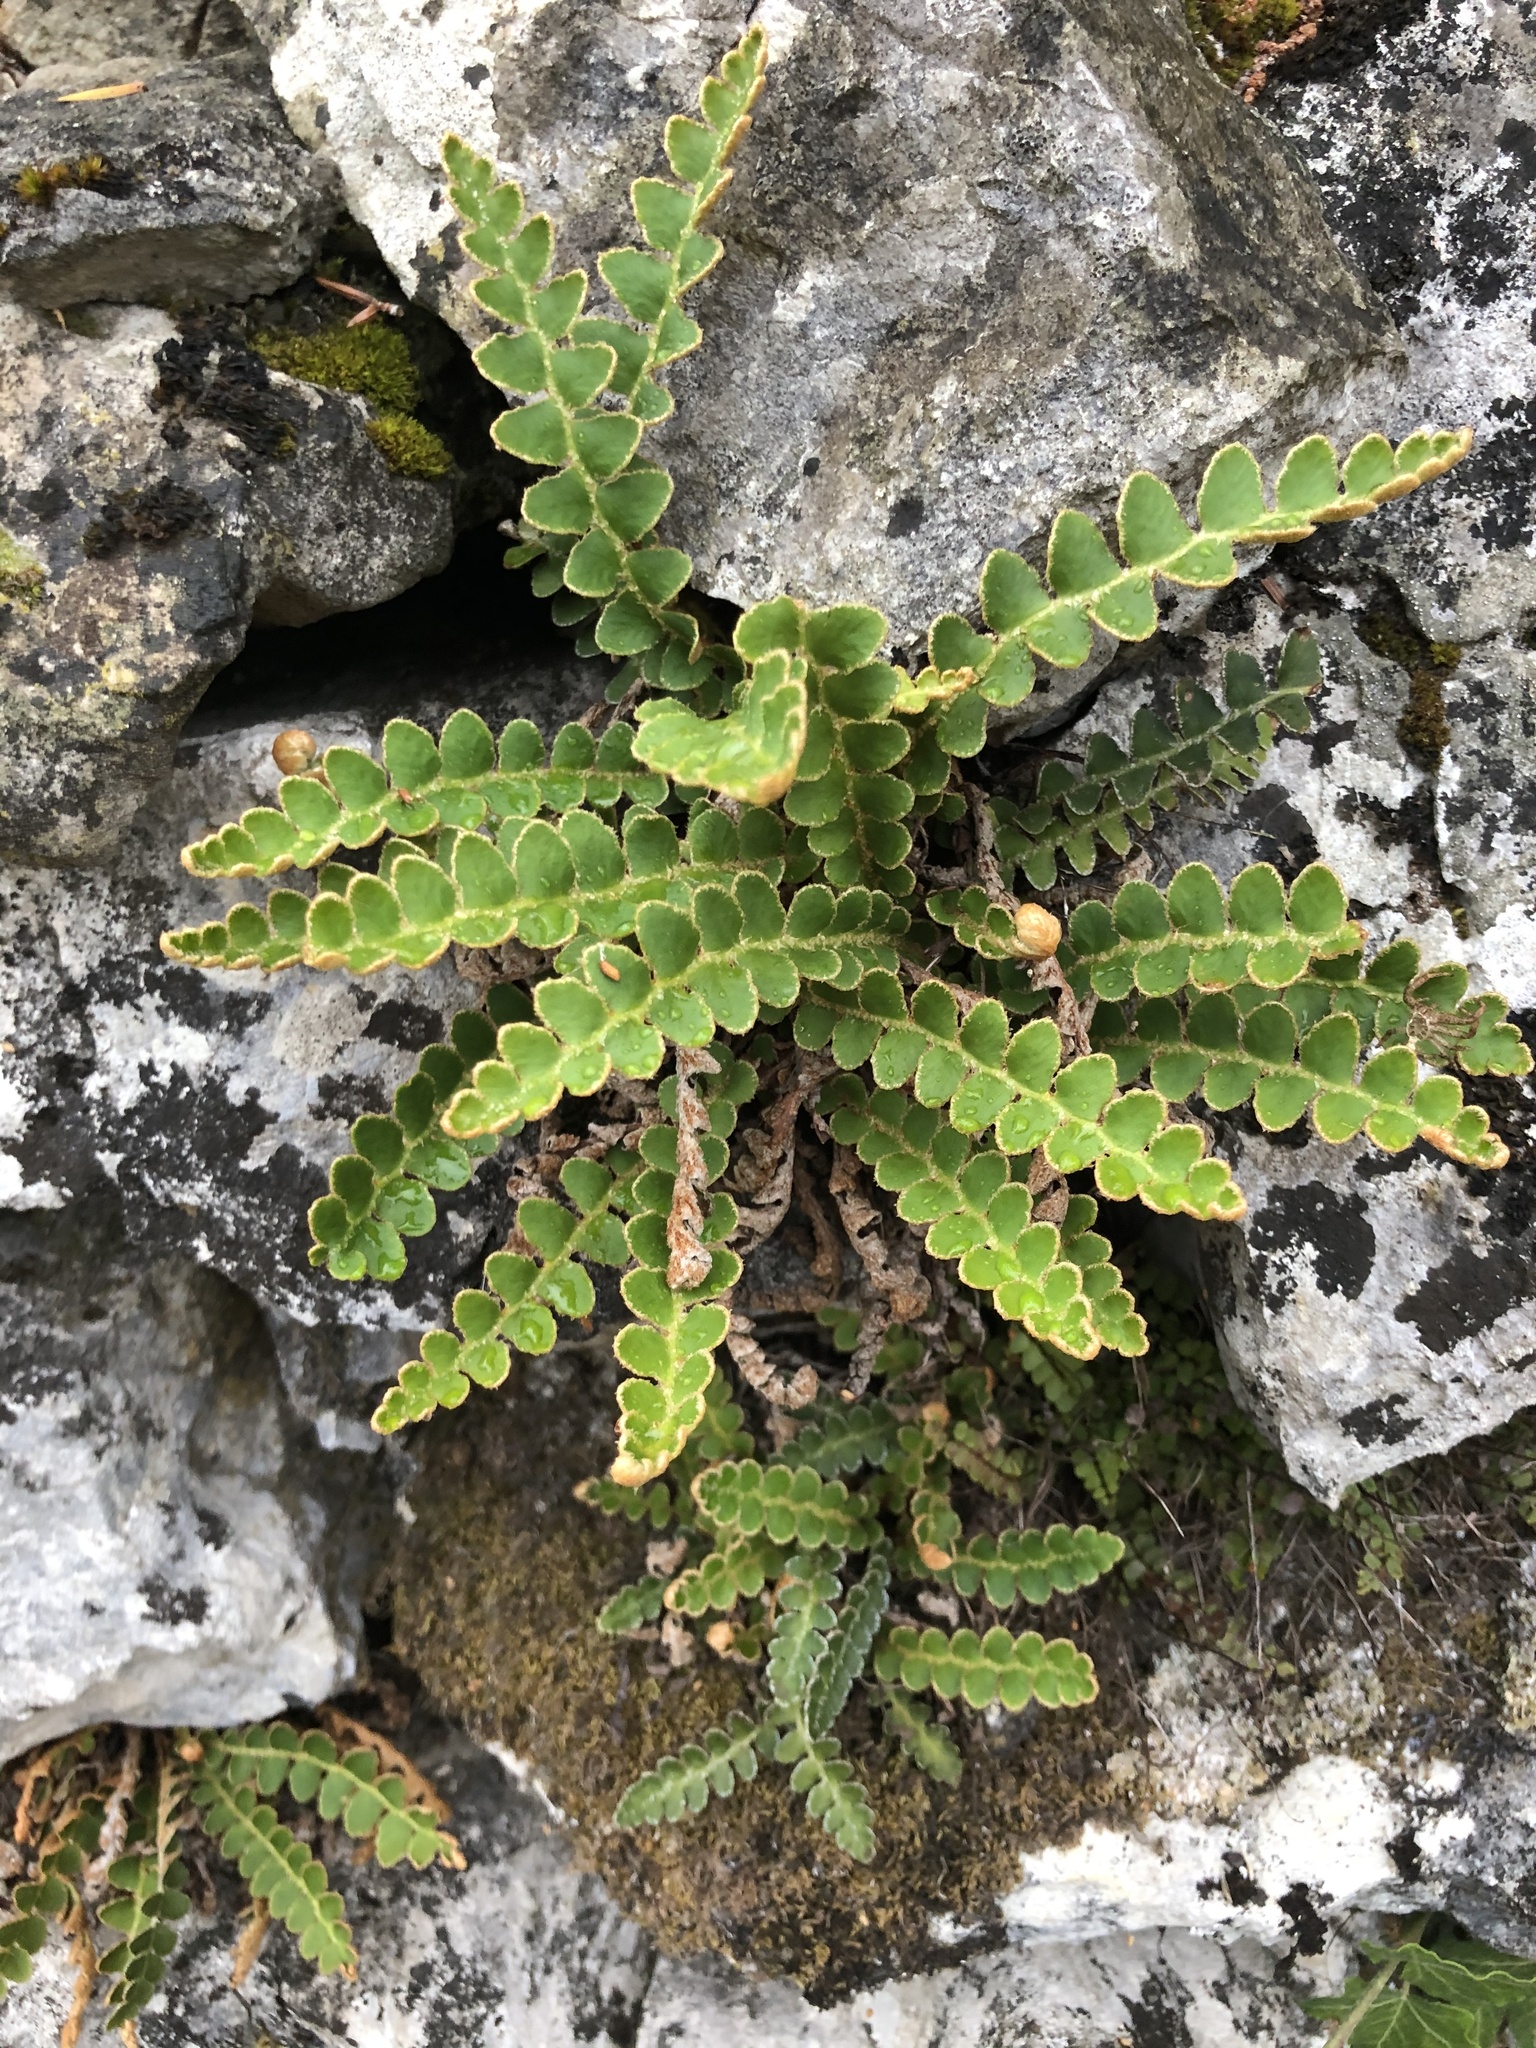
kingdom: Plantae
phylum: Tracheophyta
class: Polypodiopsida
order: Polypodiales
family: Aspleniaceae
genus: Asplenium
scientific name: Asplenium ceterach
